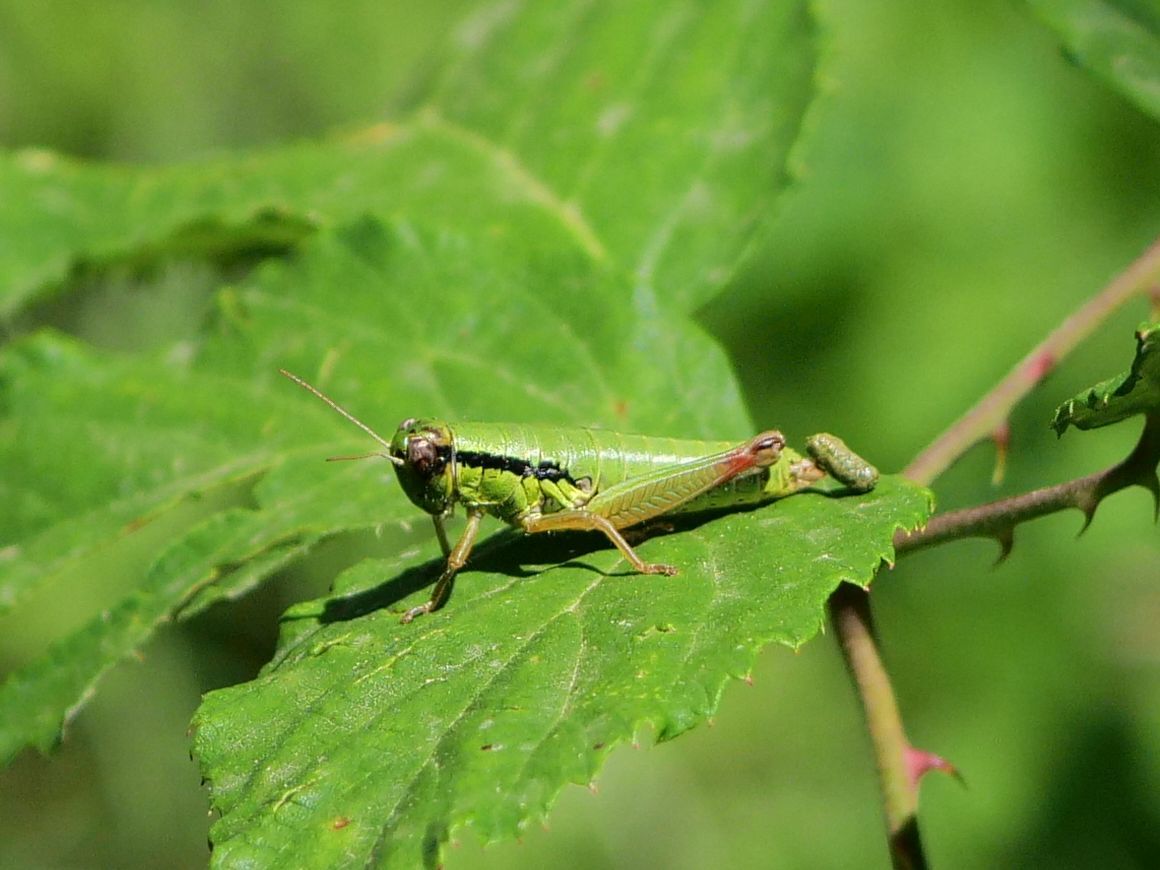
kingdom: Animalia
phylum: Arthropoda
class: Insecta
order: Orthoptera
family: Acrididae
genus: Micropodisma
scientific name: Micropodisma salamandra
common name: Foothill mountain grasshopper
